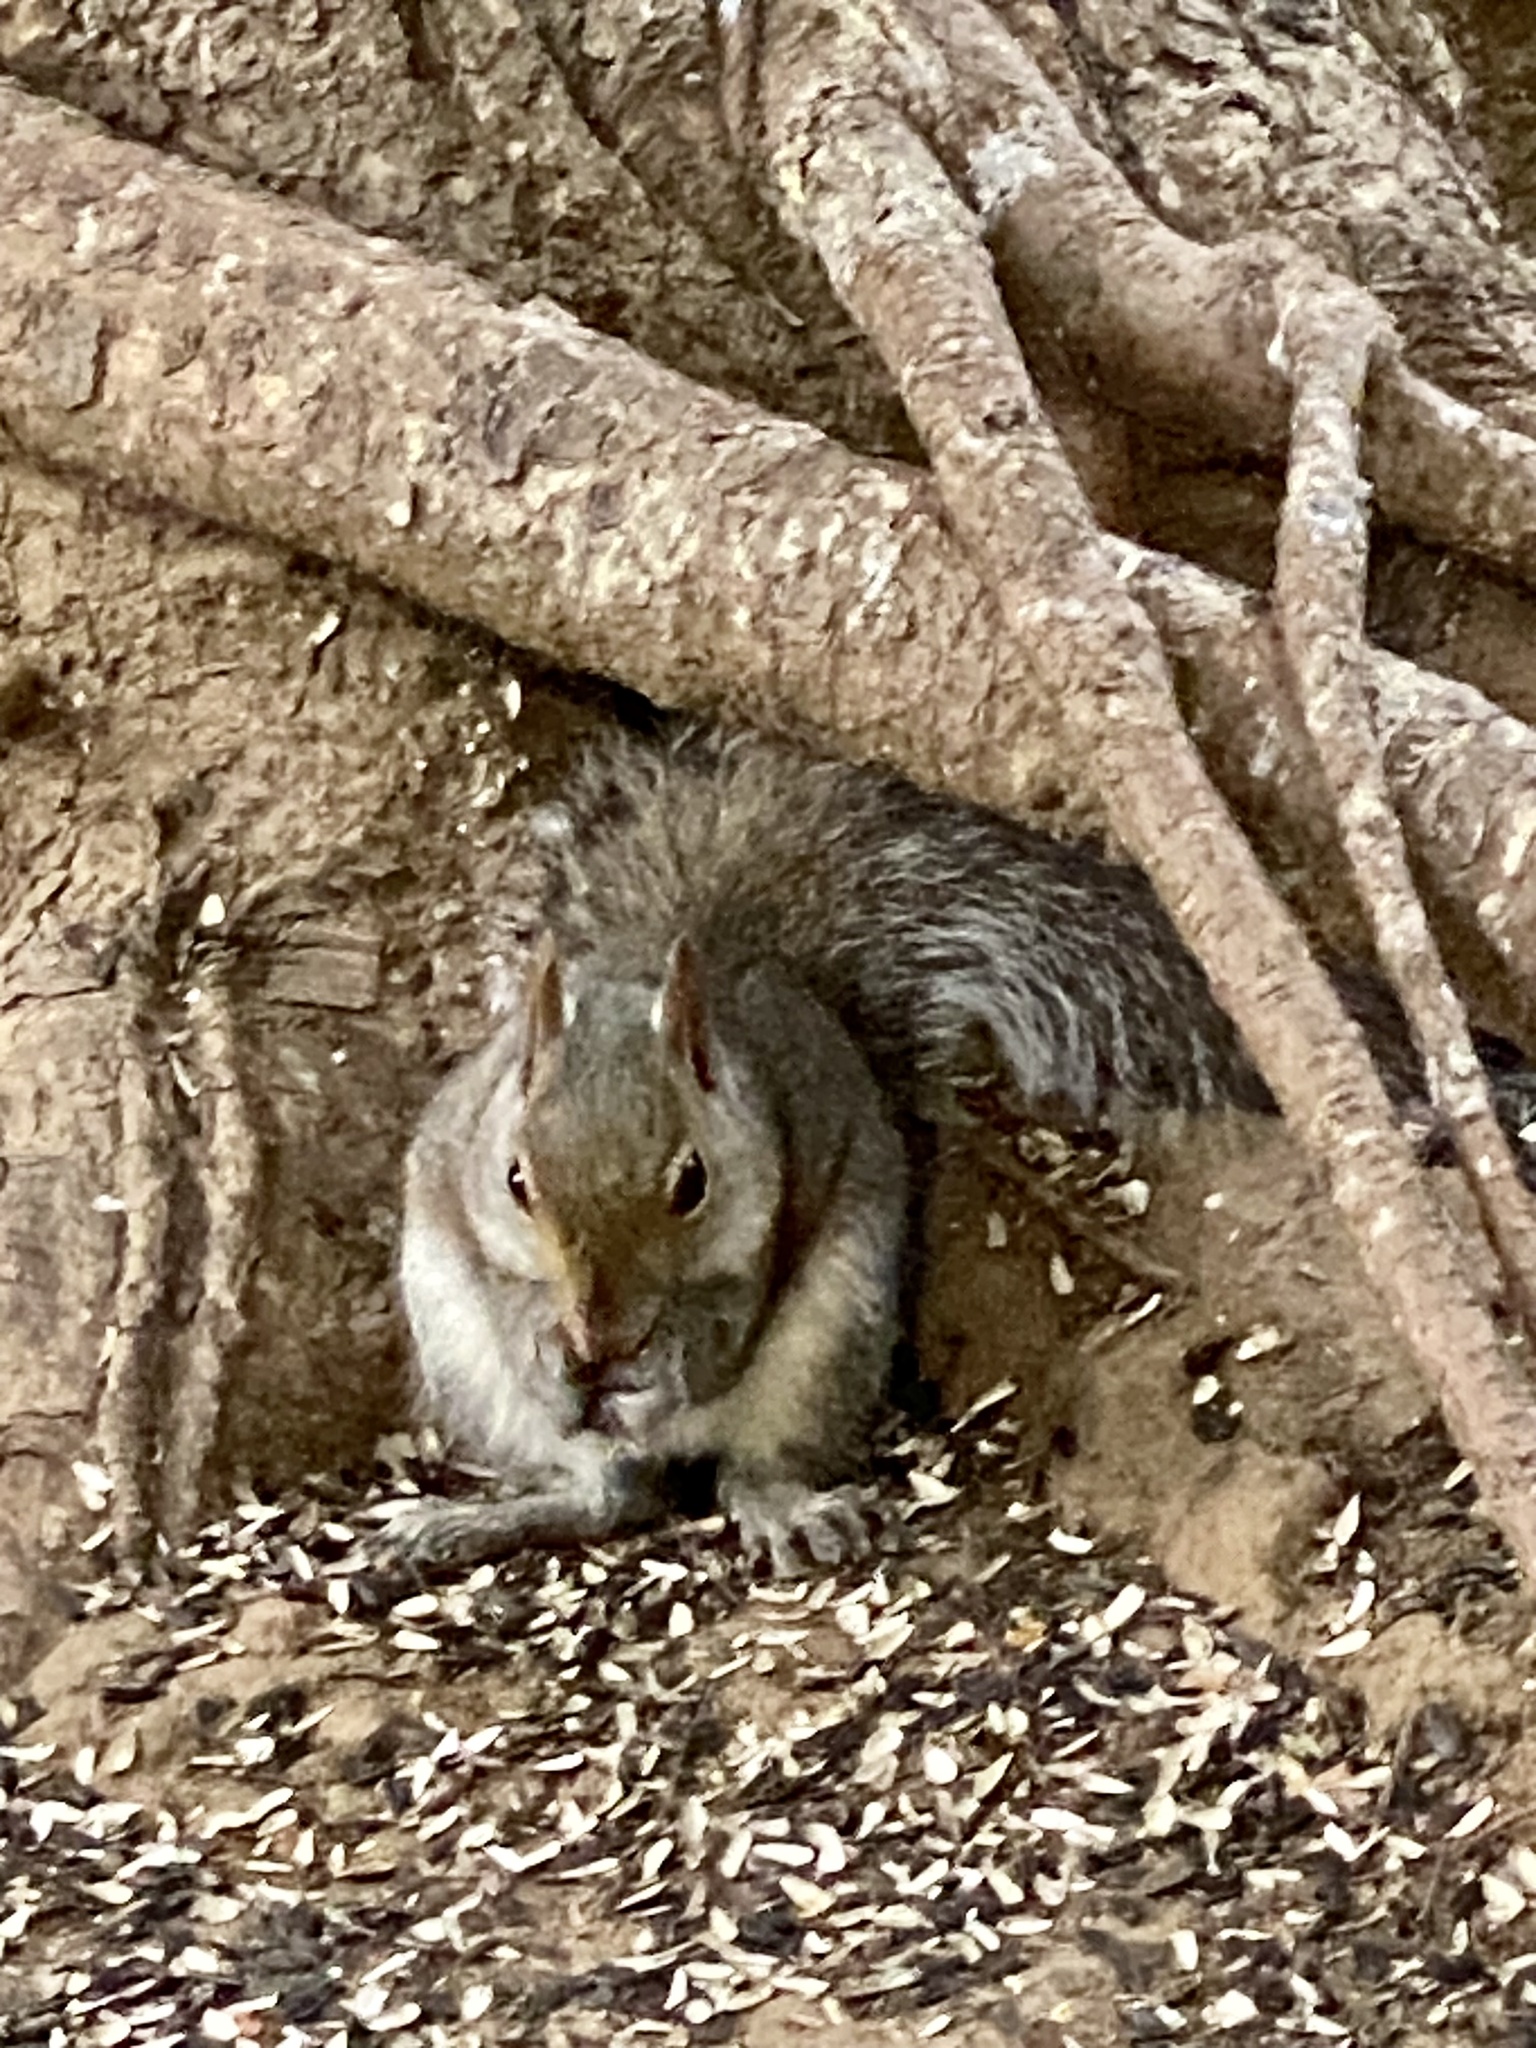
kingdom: Animalia
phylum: Chordata
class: Mammalia
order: Rodentia
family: Sciuridae
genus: Sciurus
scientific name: Sciurus carolinensis
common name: Eastern gray squirrel
